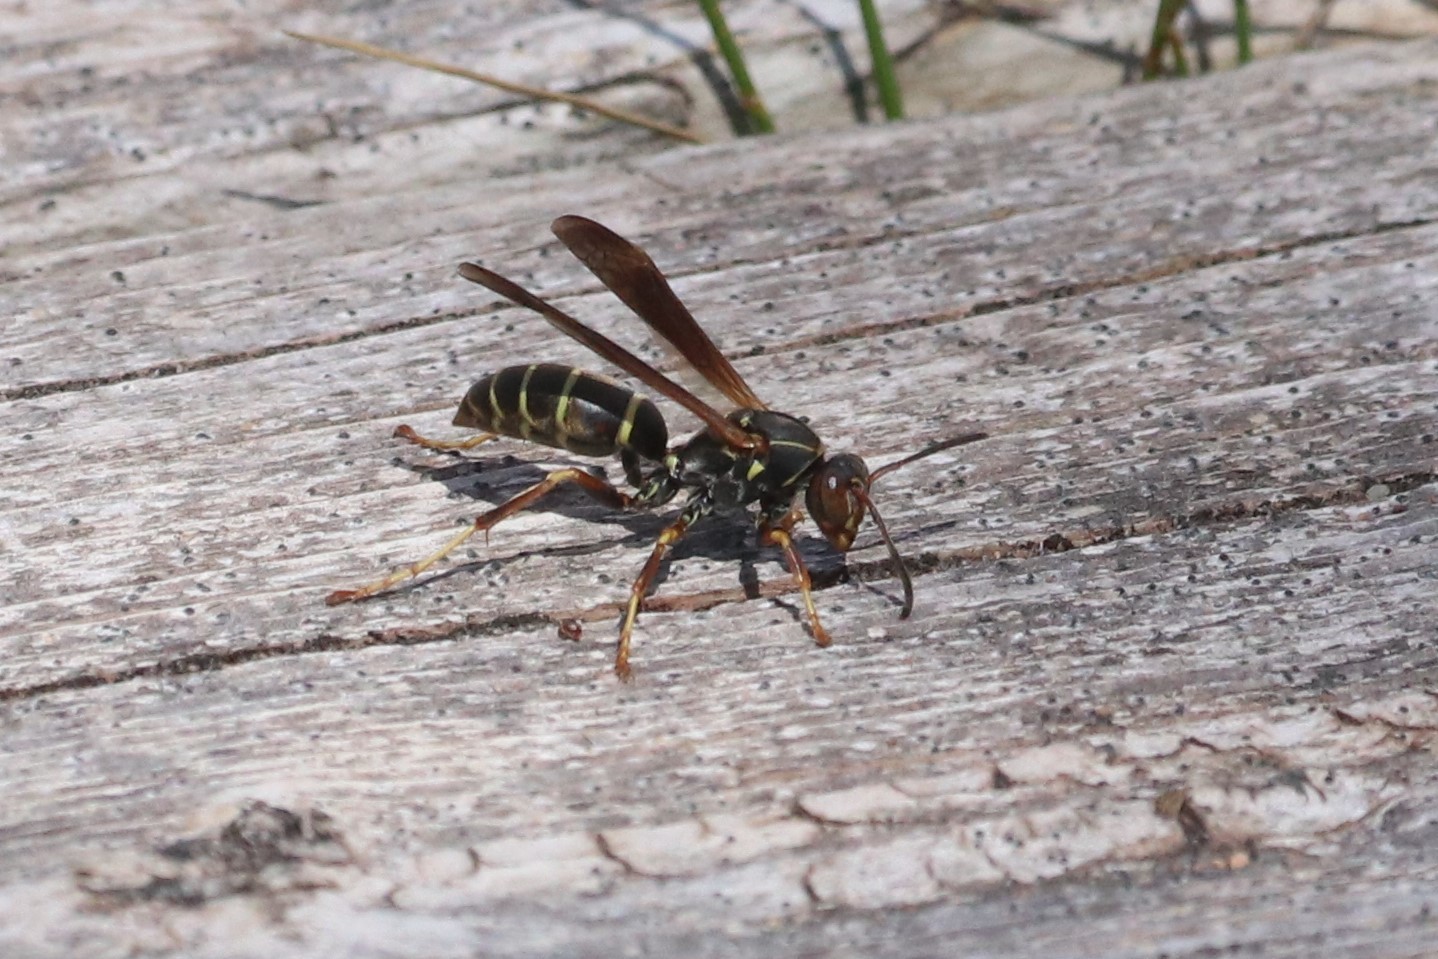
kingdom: Animalia
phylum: Arthropoda
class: Insecta
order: Hymenoptera
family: Eumenidae
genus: Polistes
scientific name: Polistes fuscatus
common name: Dark paper wasp
